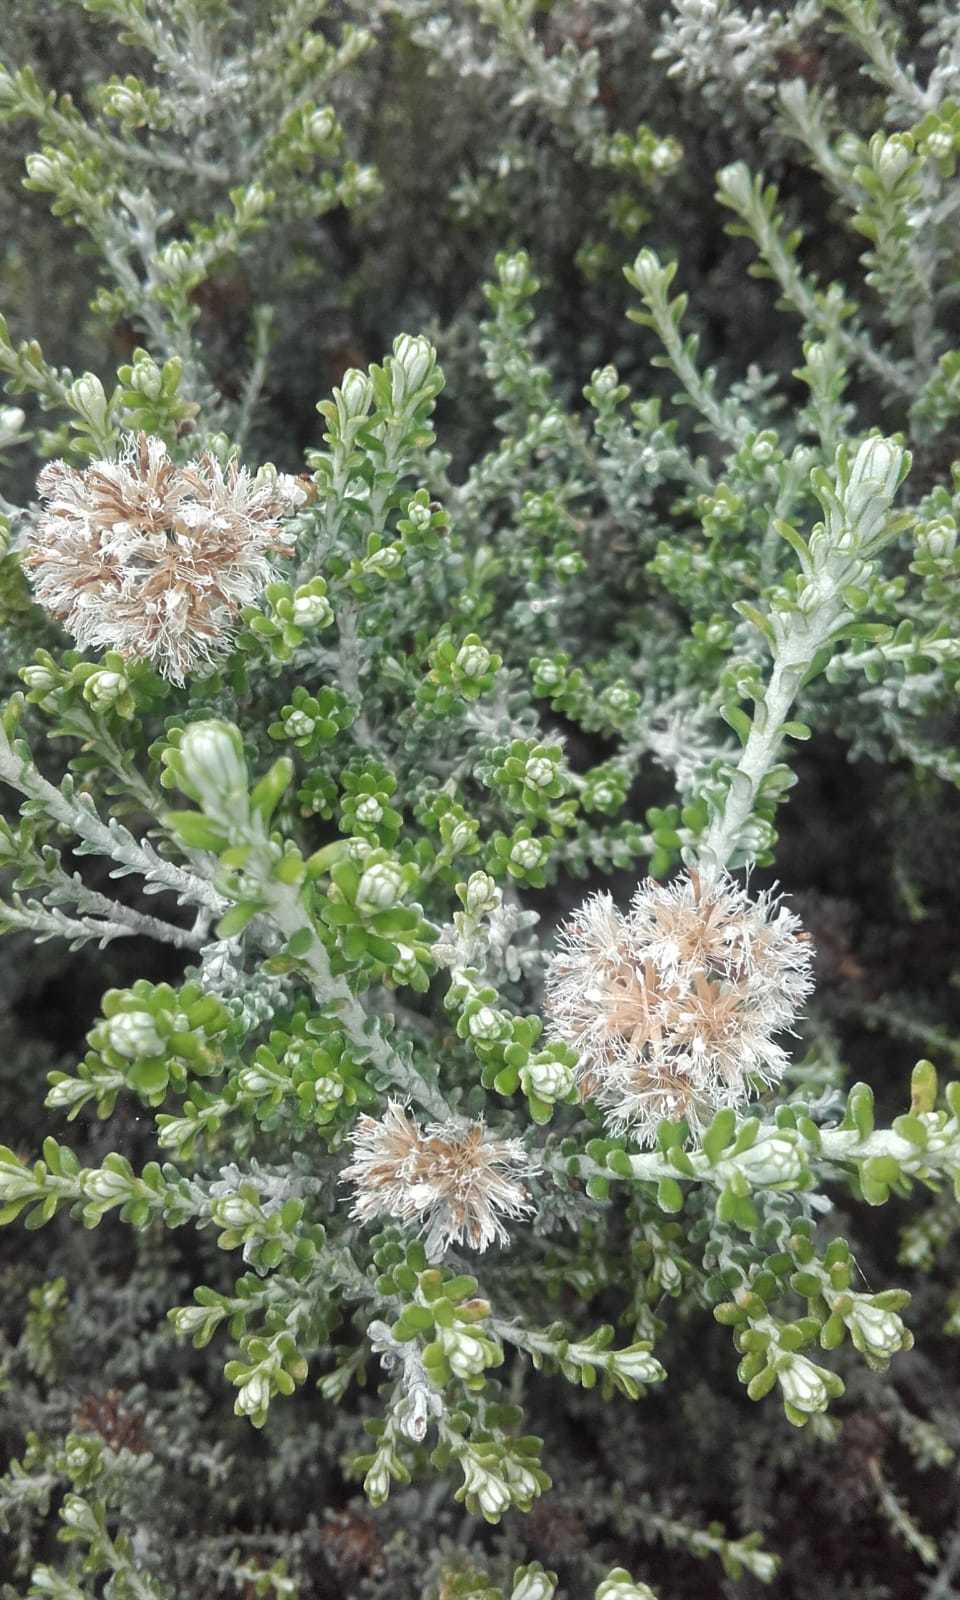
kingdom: Plantae
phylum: Tracheophyta
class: Magnoliopsida
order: Asterales
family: Asteraceae
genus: Ozothamnus
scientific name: Ozothamnus leptophyllus
